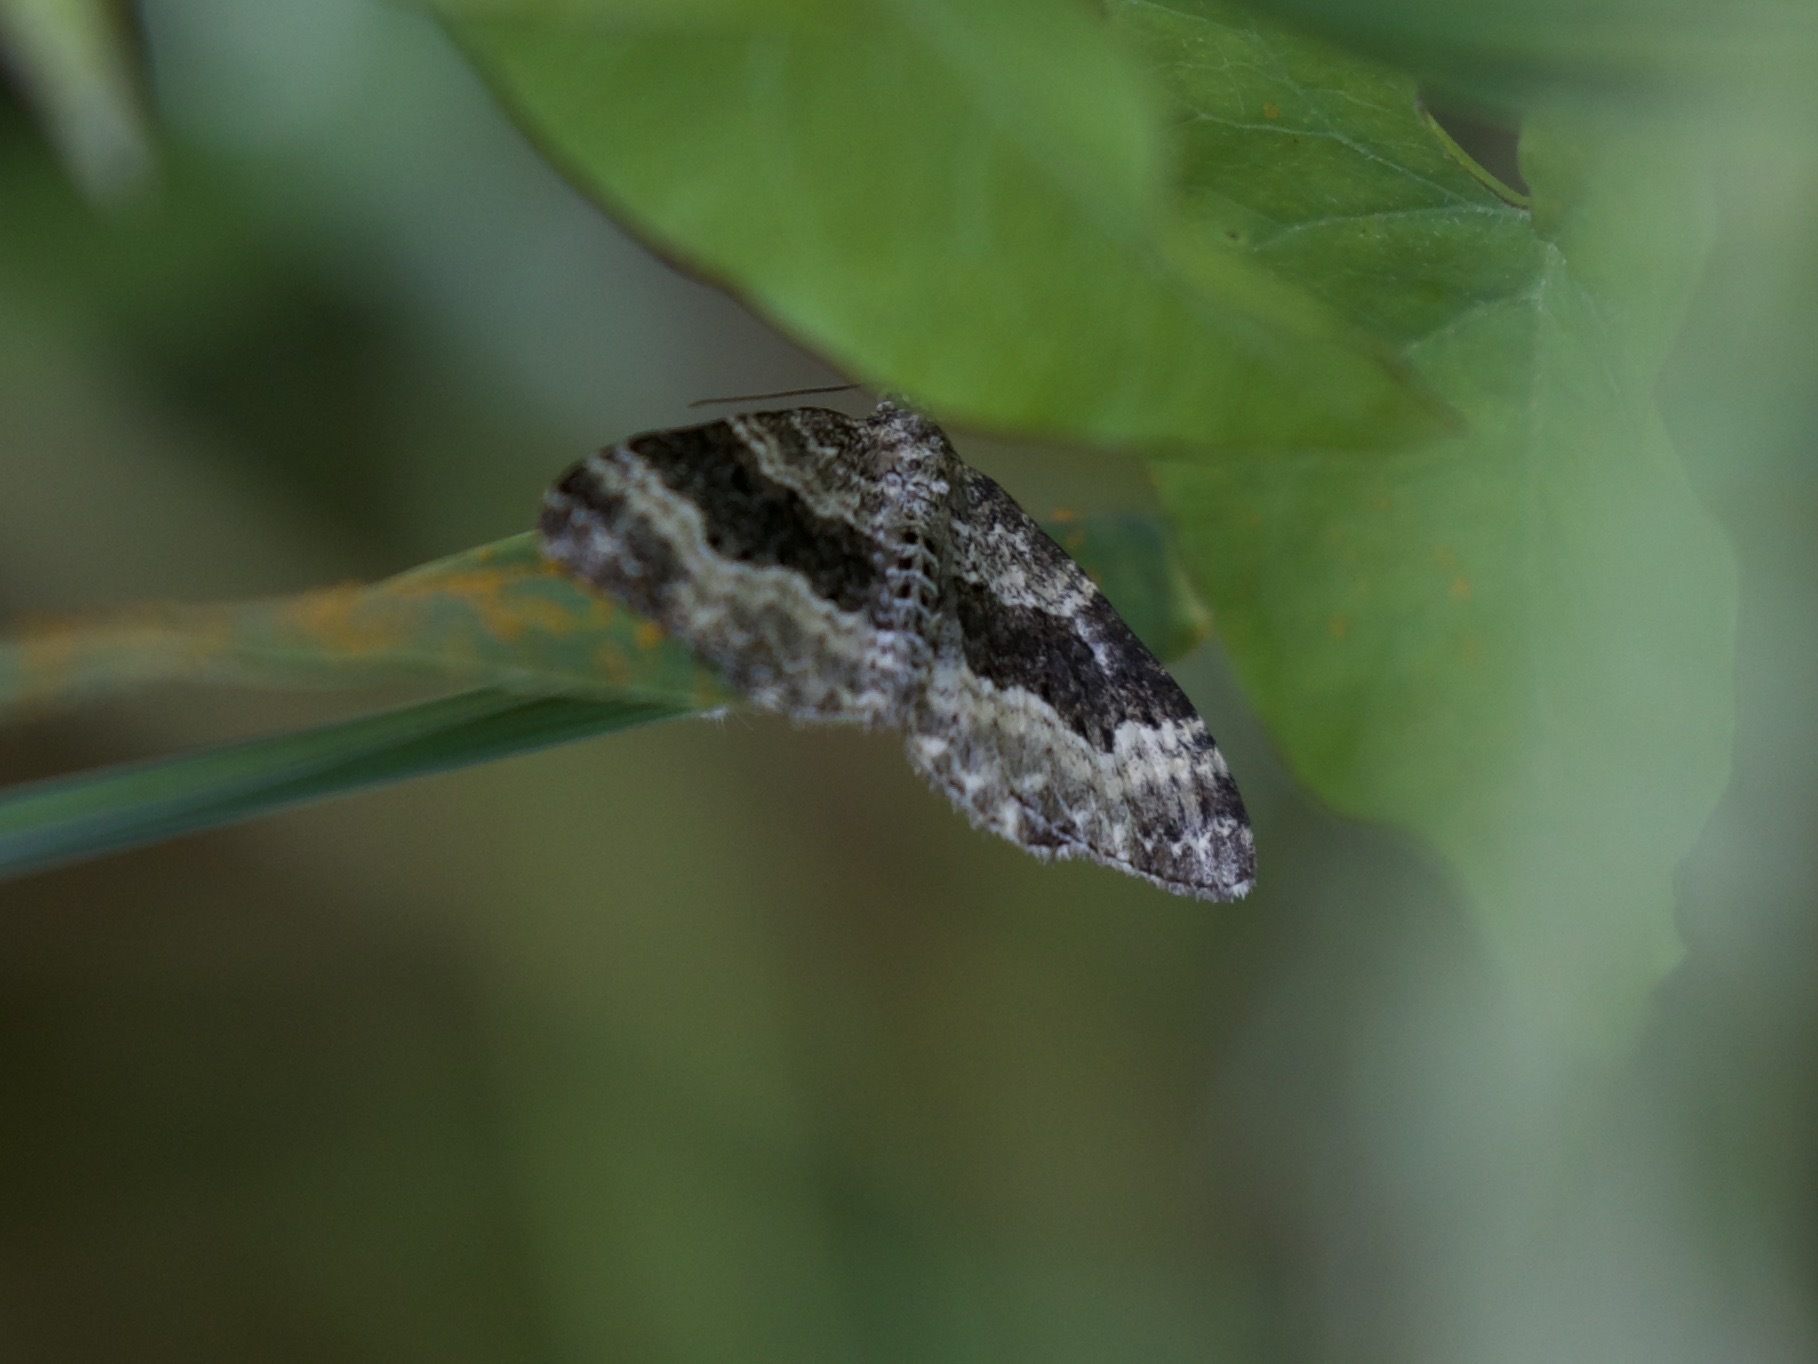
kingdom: Animalia
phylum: Arthropoda
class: Insecta
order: Lepidoptera
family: Geometridae
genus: Epirrhoe
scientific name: Epirrhoe alternata
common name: Common carpet
